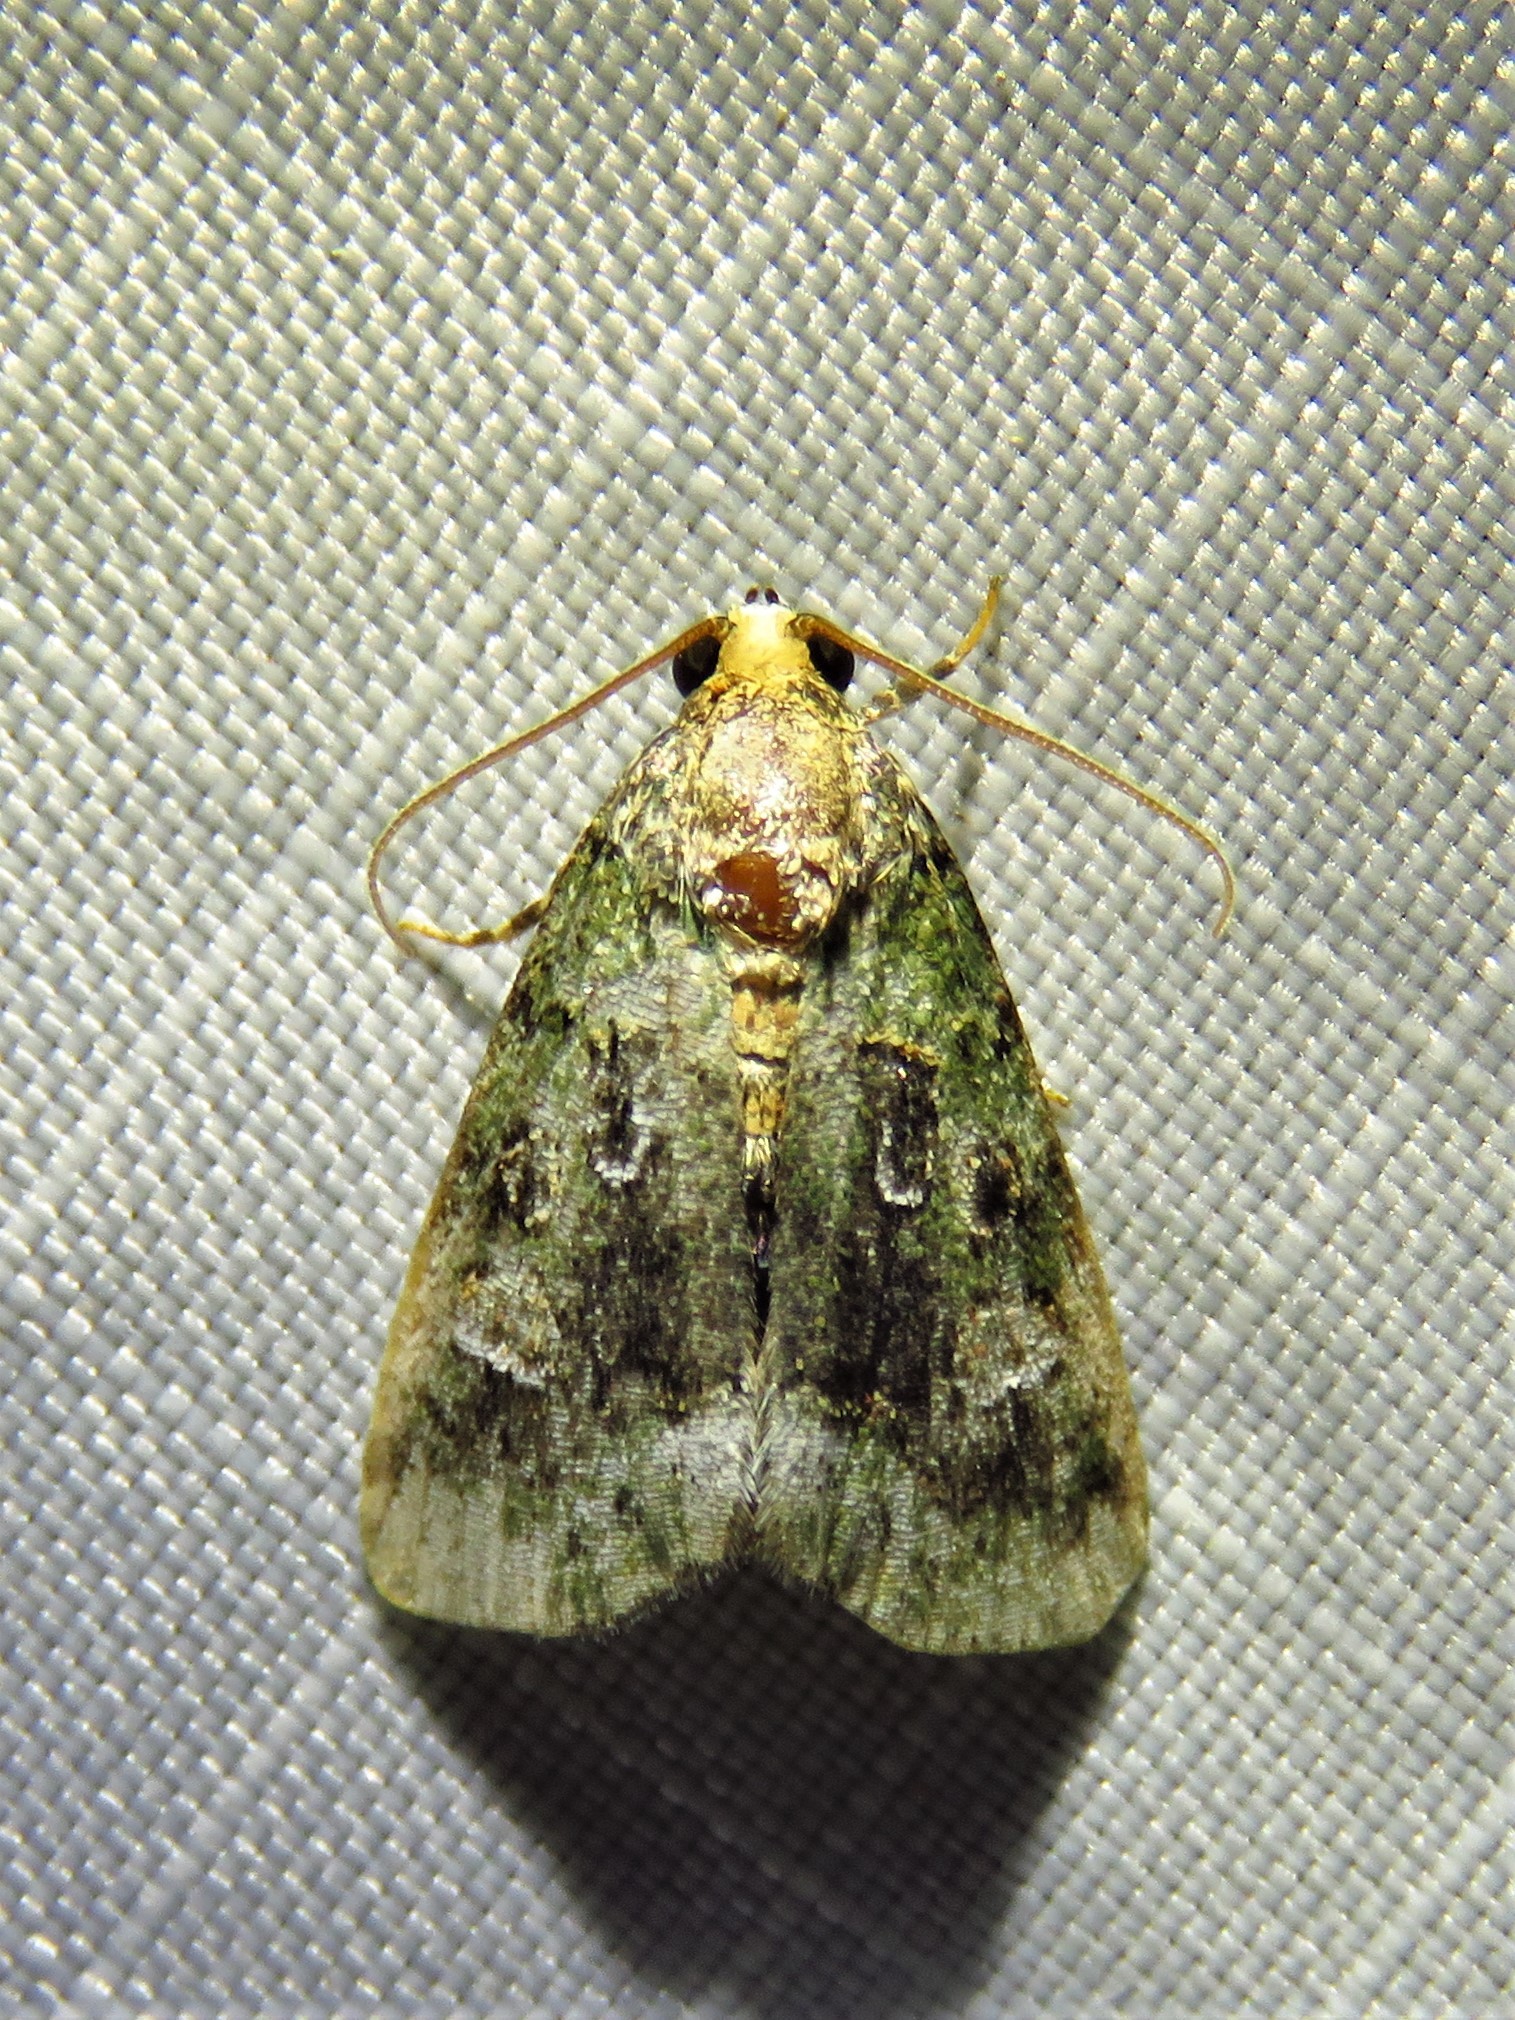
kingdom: Animalia
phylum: Arthropoda
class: Insecta
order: Lepidoptera
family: Noctuidae
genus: Lithacodia
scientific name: Lithacodia musta
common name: Small mossy glyph
